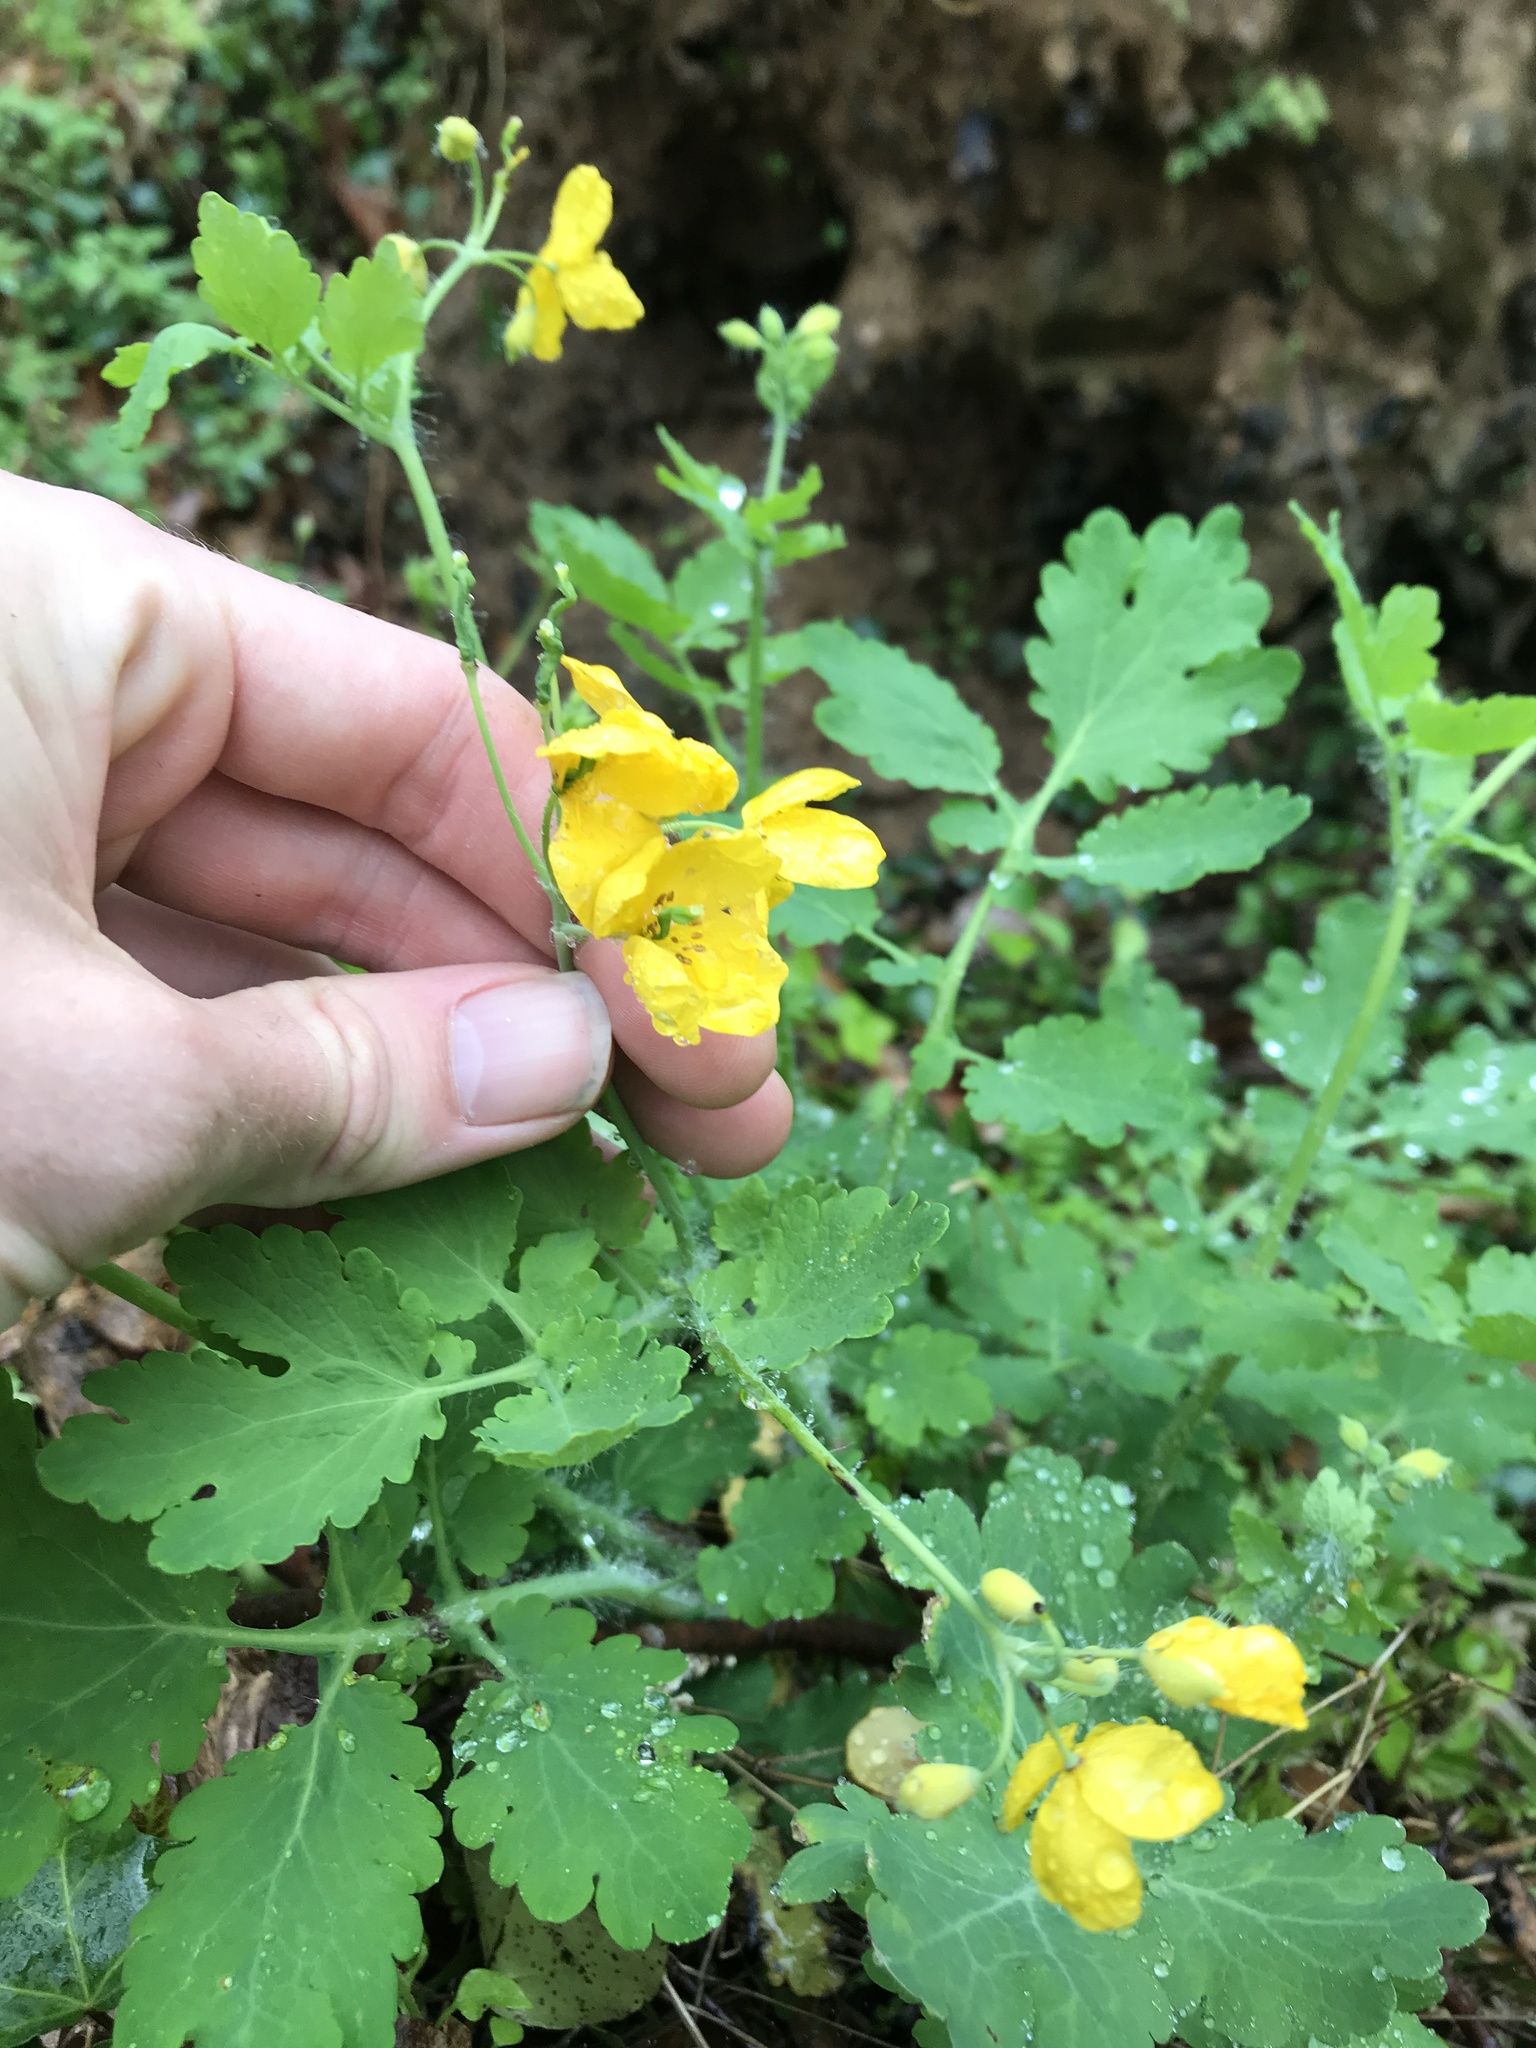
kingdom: Plantae
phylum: Tracheophyta
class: Magnoliopsida
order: Ranunculales
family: Papaveraceae
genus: Chelidonium
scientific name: Chelidonium majus
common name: Greater celandine
